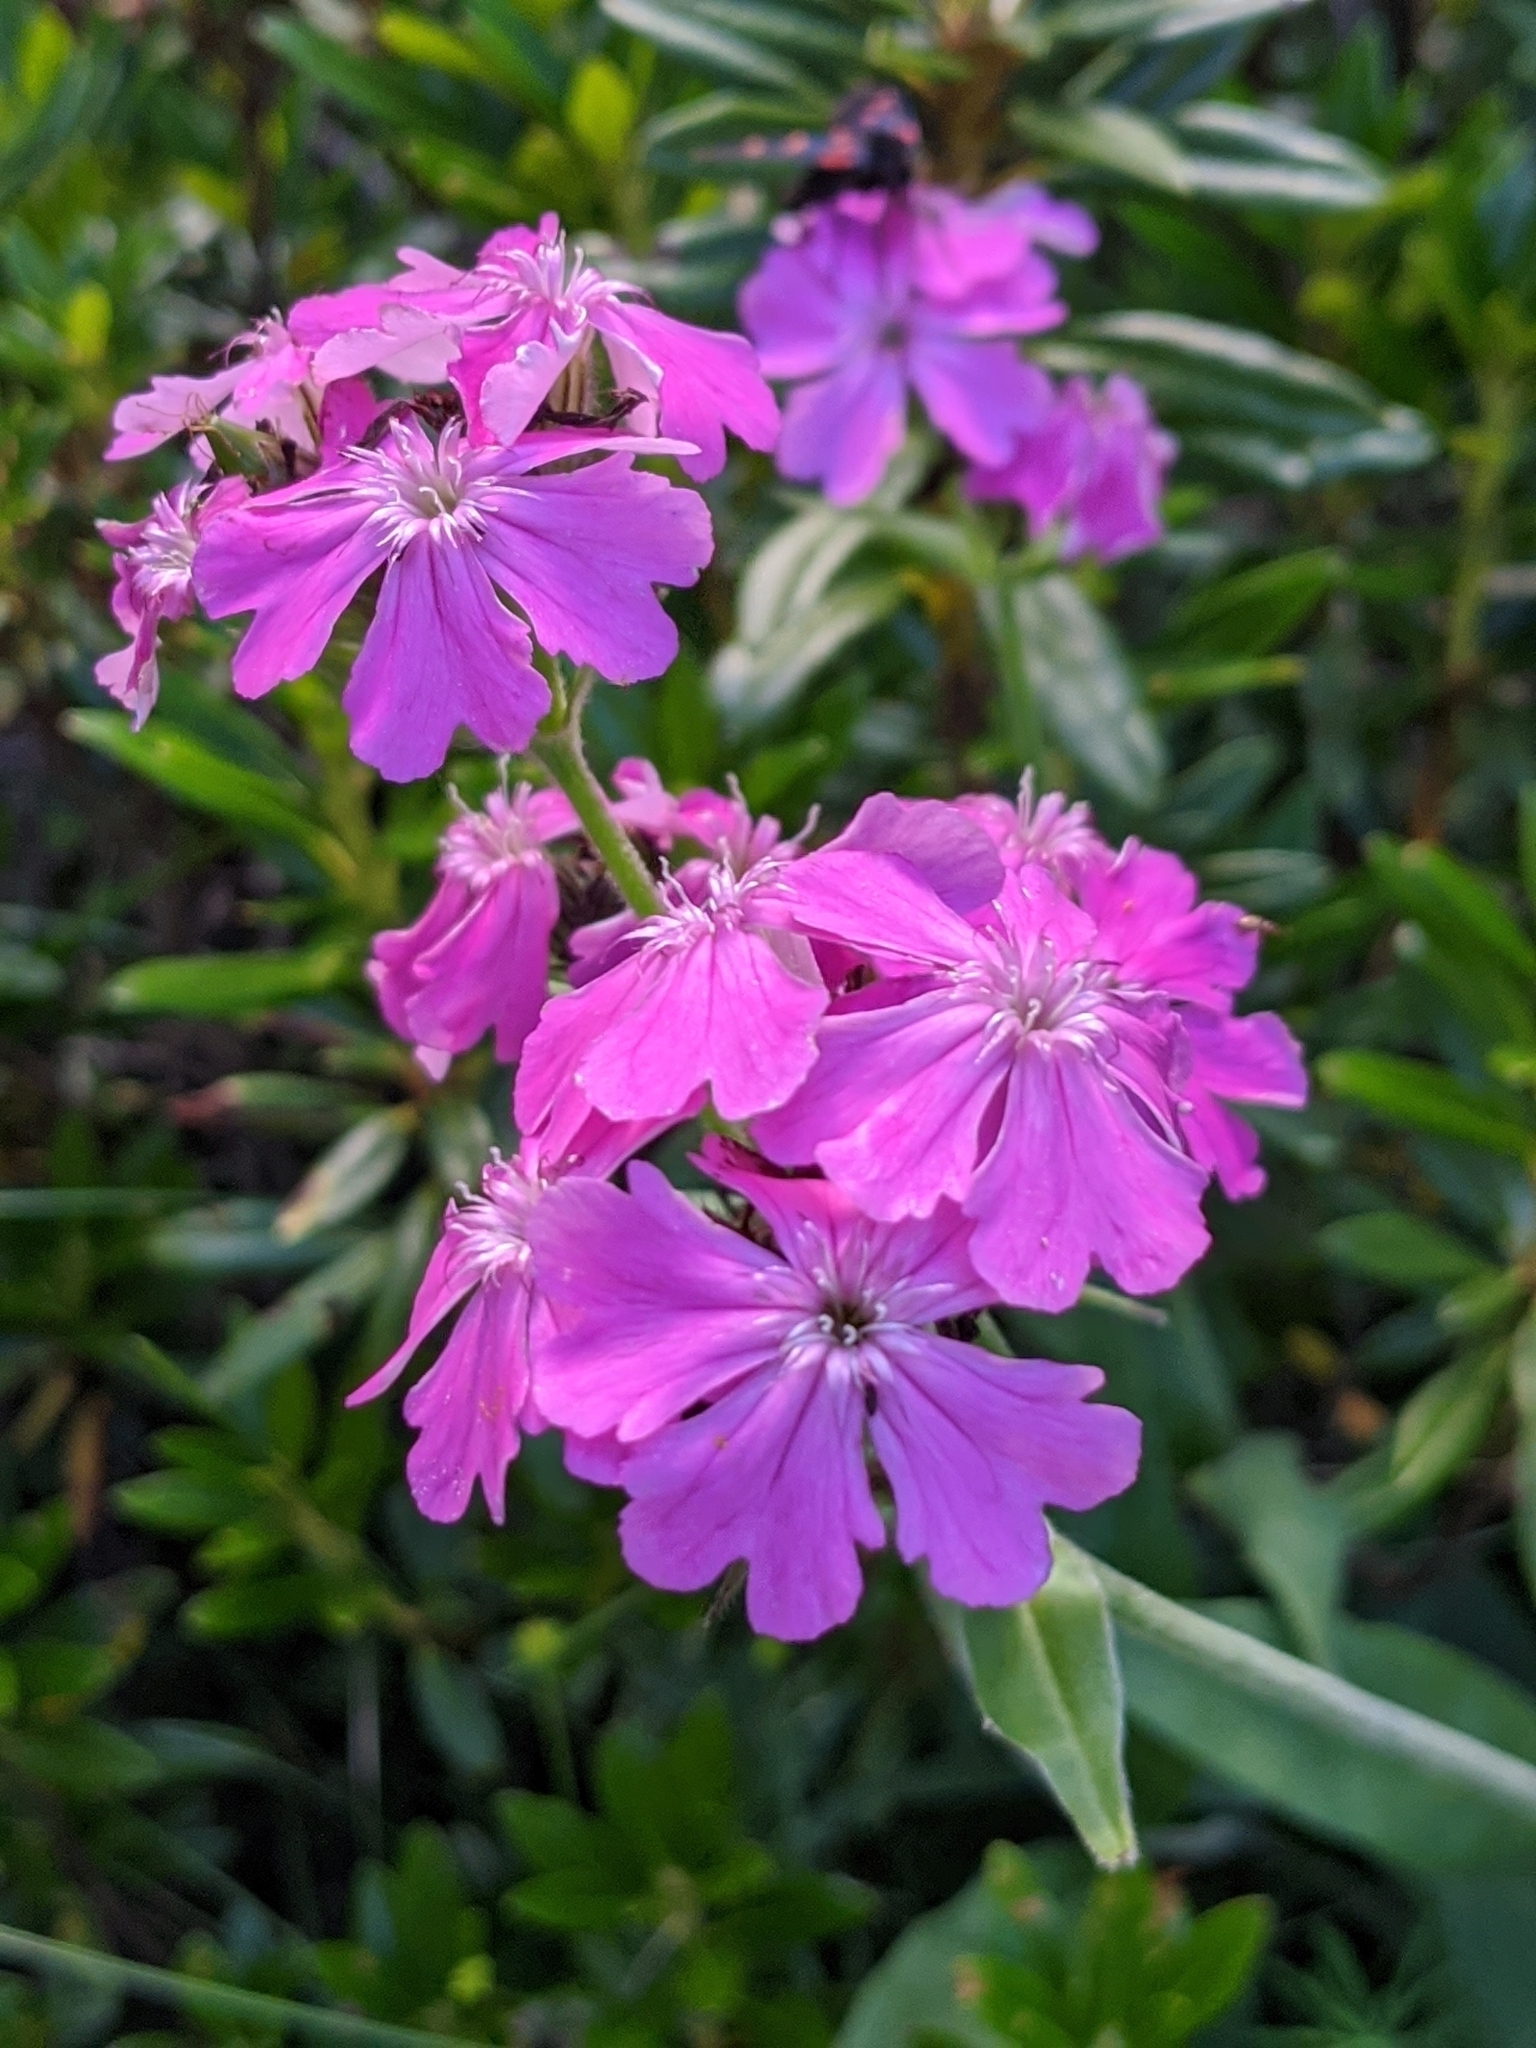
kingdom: Plantae
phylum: Tracheophyta
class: Magnoliopsida
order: Caryophyllales
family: Caryophyllaceae
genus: Silene
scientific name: Silene flos-jovis
